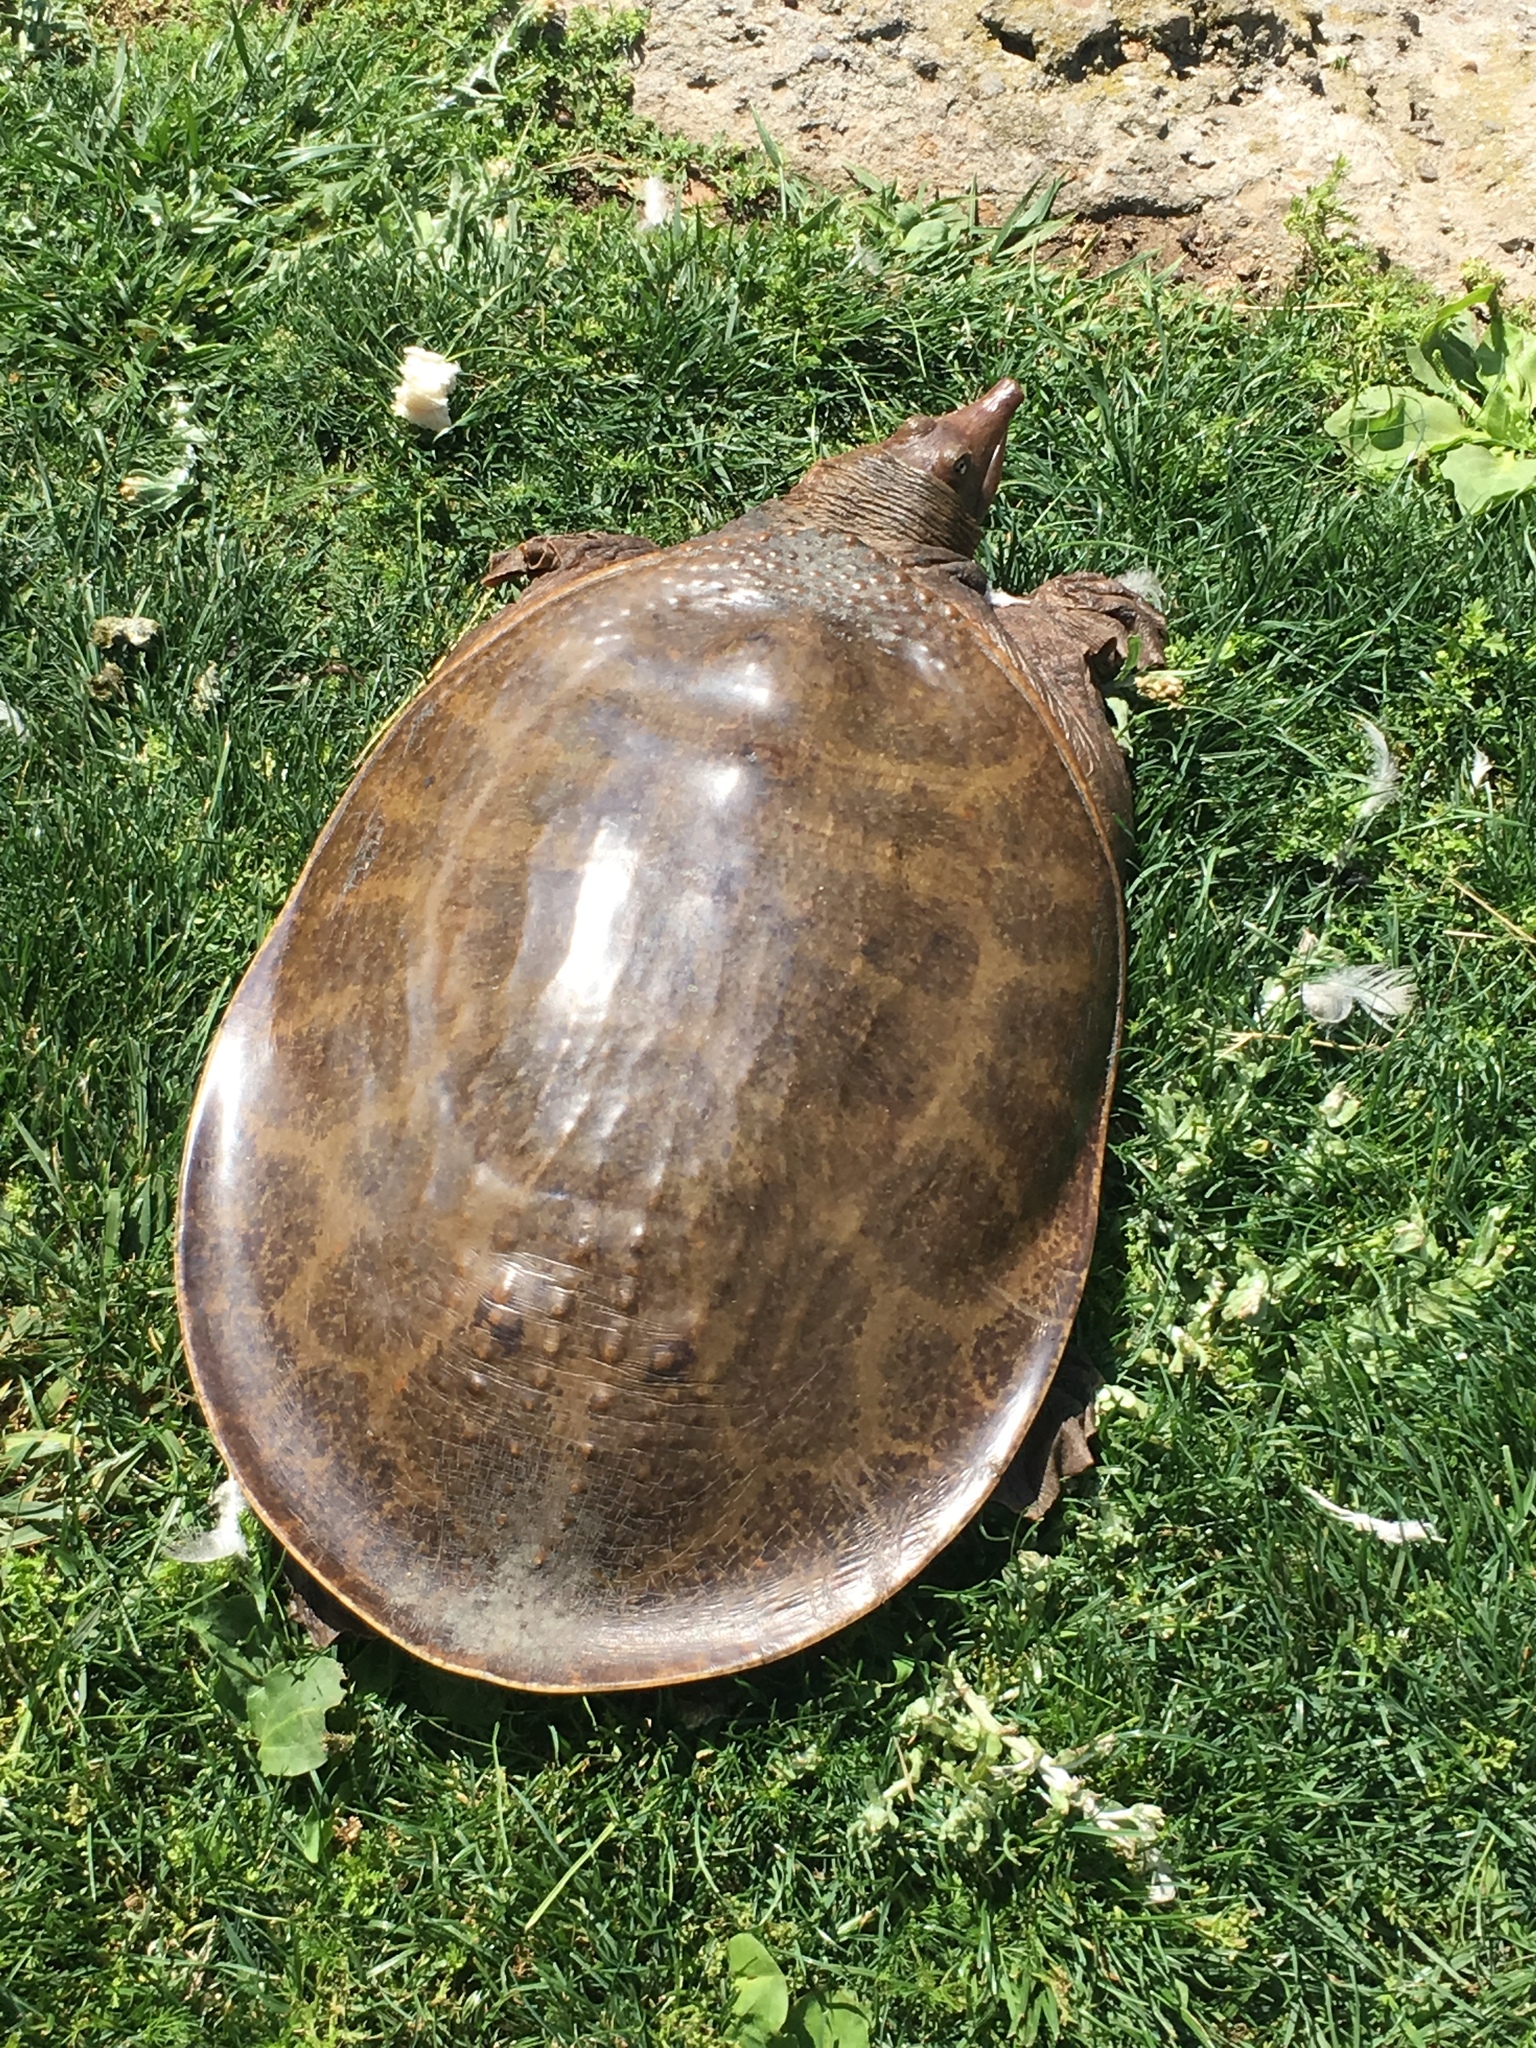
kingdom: Animalia
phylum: Chordata
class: Testudines
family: Trionychidae
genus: Apalone
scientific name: Apalone ferox
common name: Florida softshell turtle
